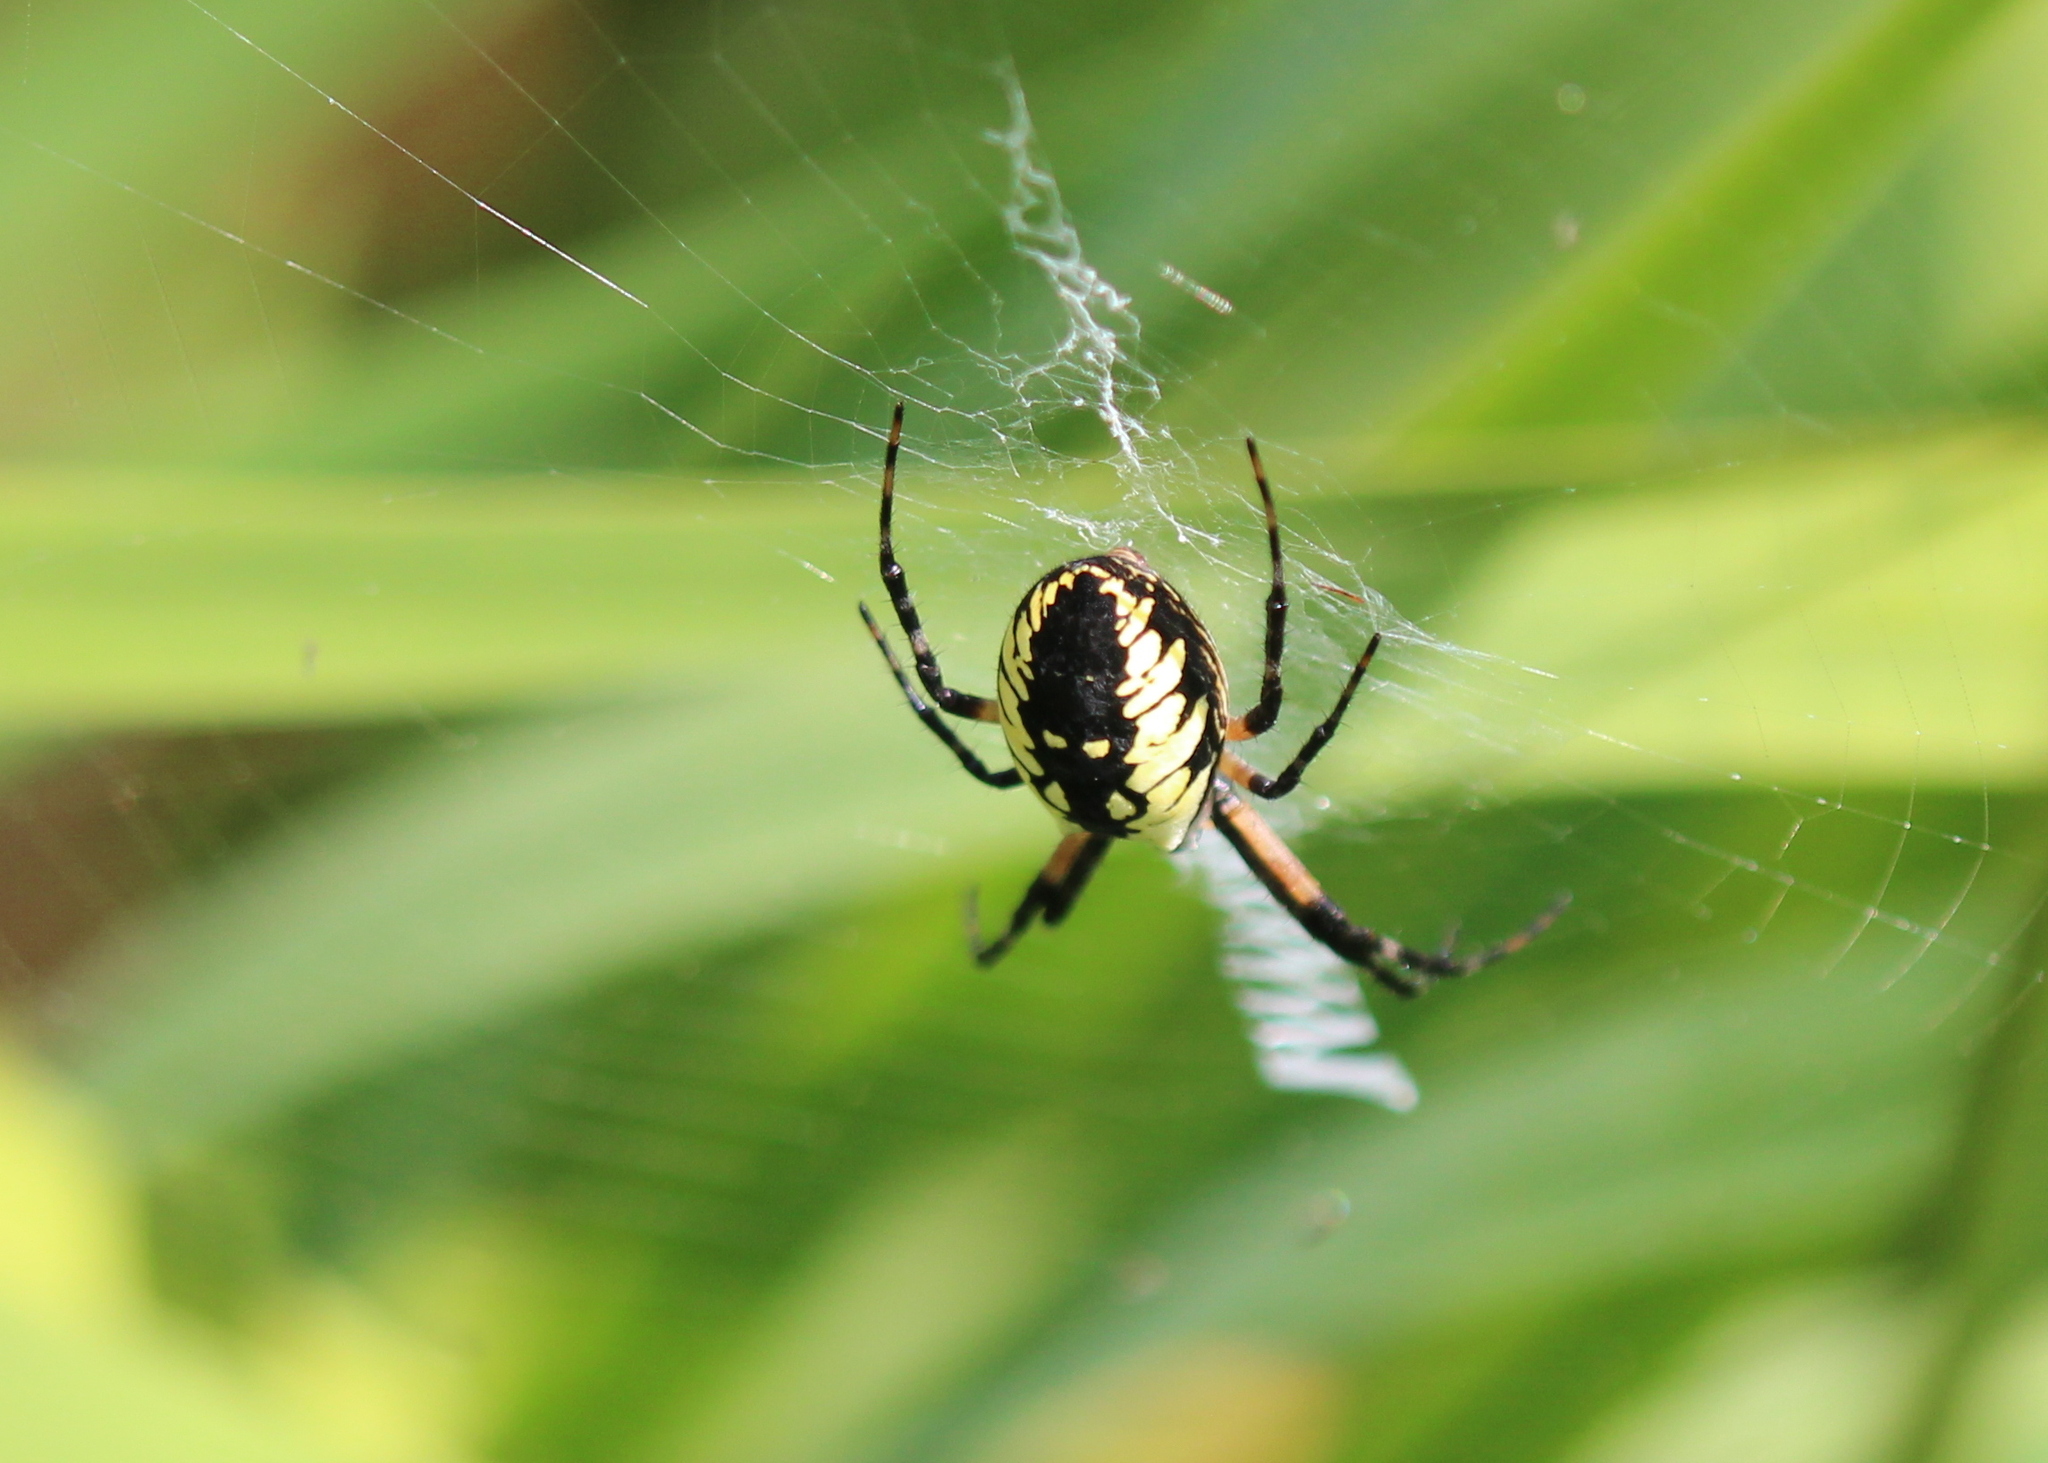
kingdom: Animalia
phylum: Arthropoda
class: Arachnida
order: Araneae
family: Araneidae
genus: Argiope
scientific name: Argiope aurantia
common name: Orb weavers
